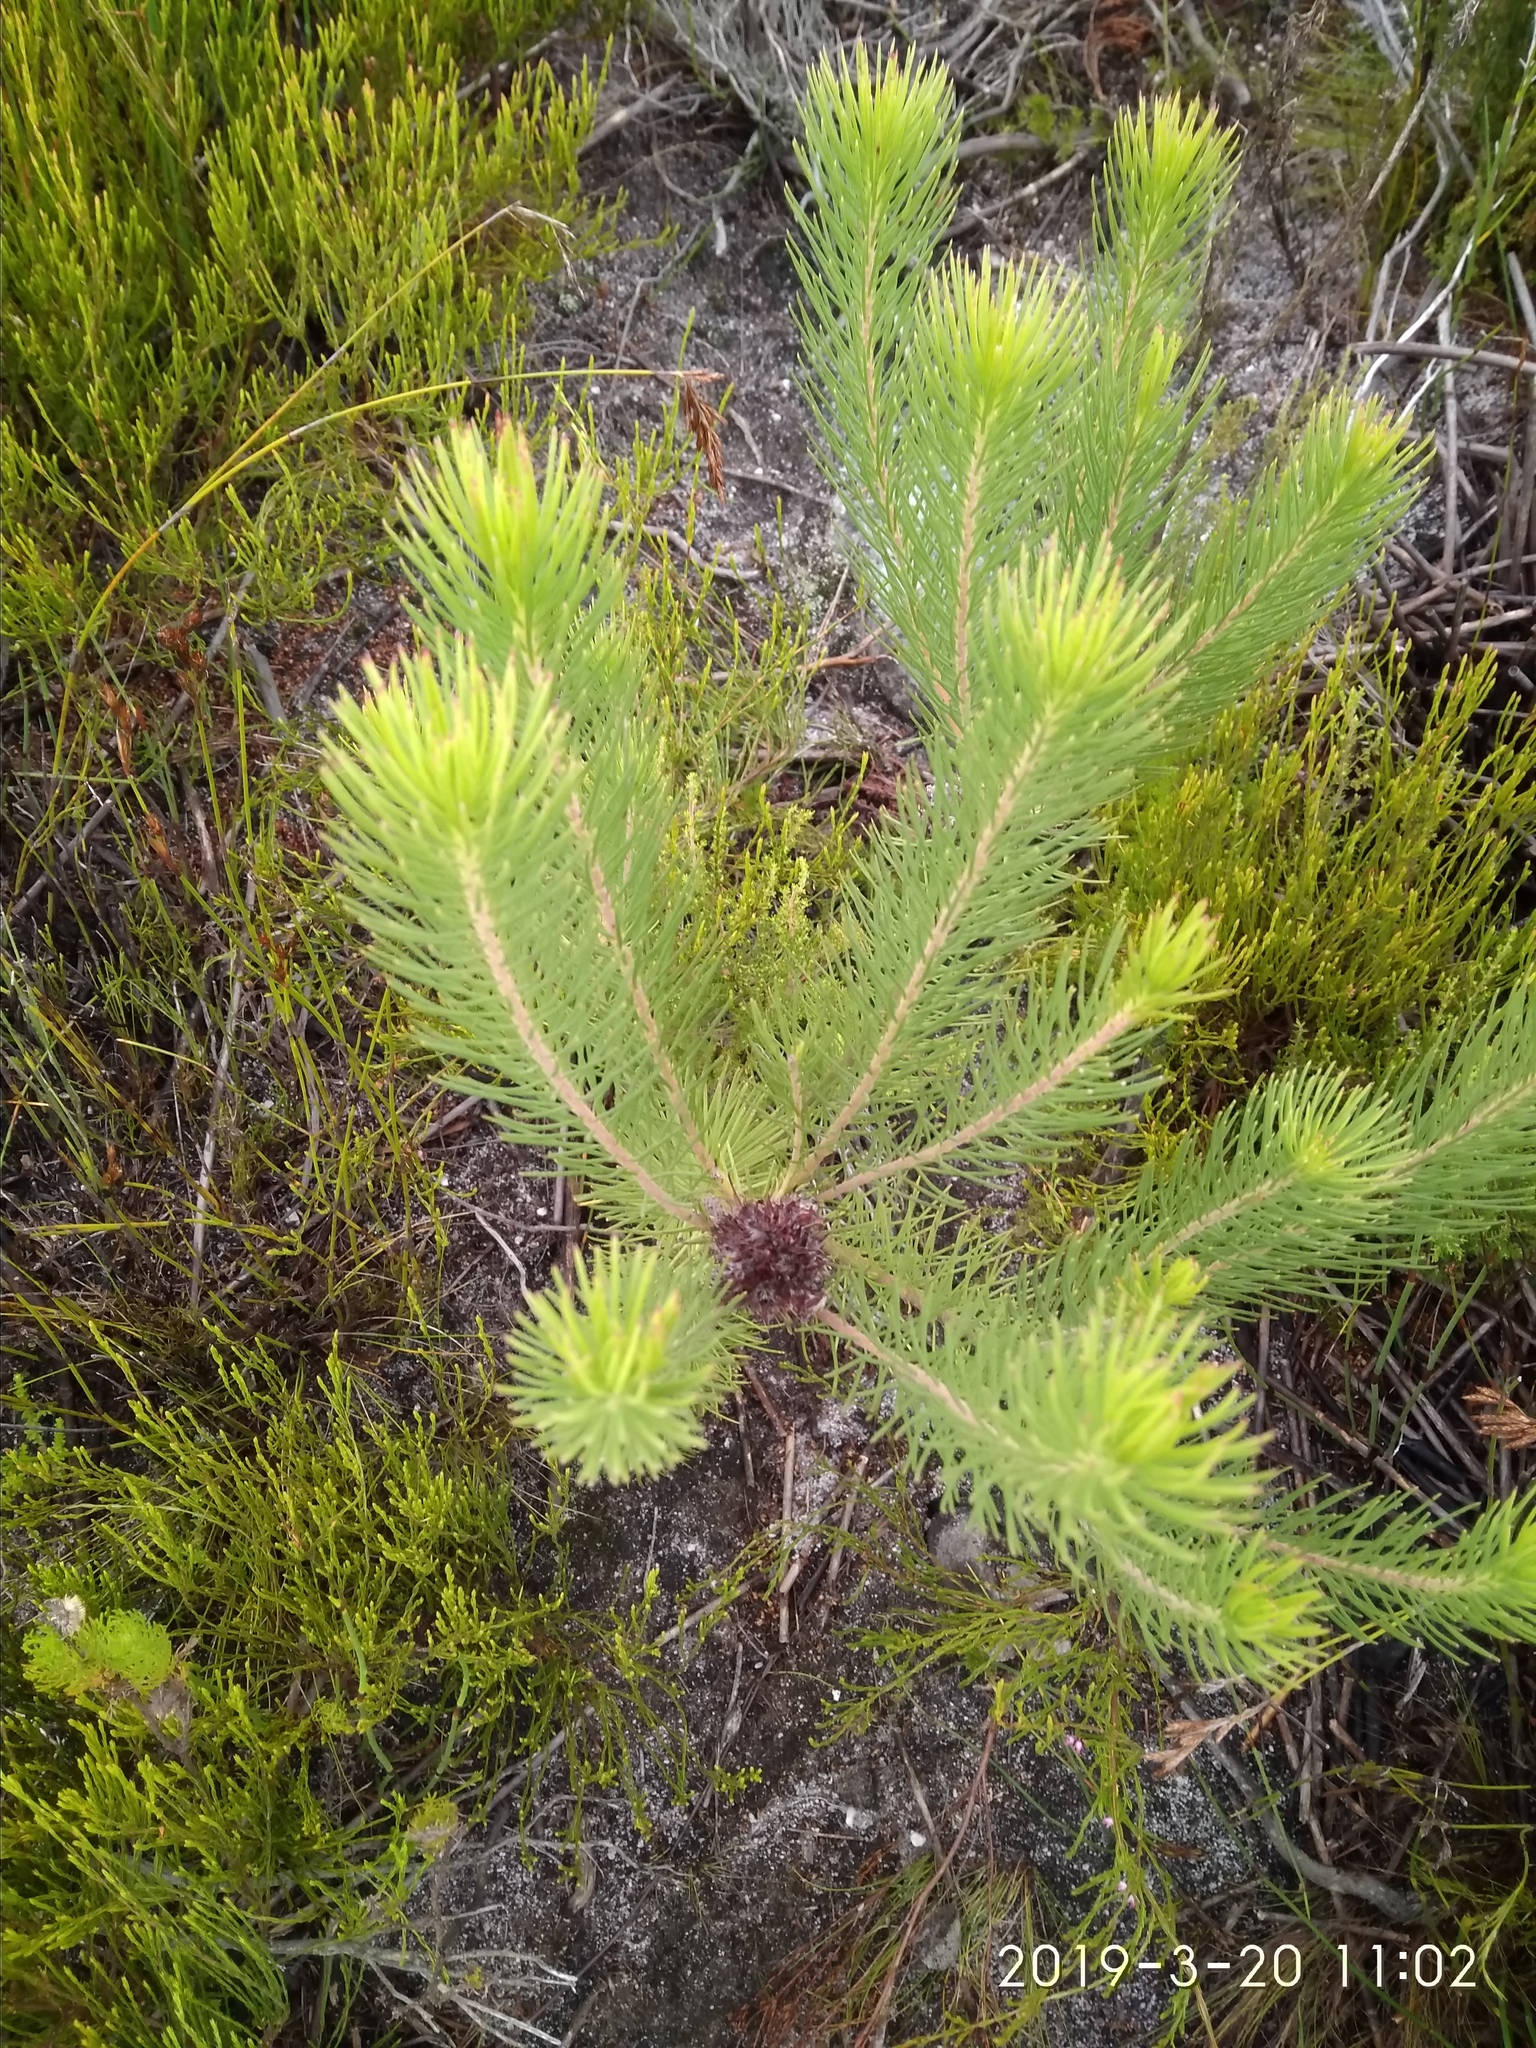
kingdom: Plantae
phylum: Tracheophyta
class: Magnoliopsida
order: Proteales
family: Proteaceae
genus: Sorocephalus
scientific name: Sorocephalus pinifolius
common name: Long-leaf clusterhead
